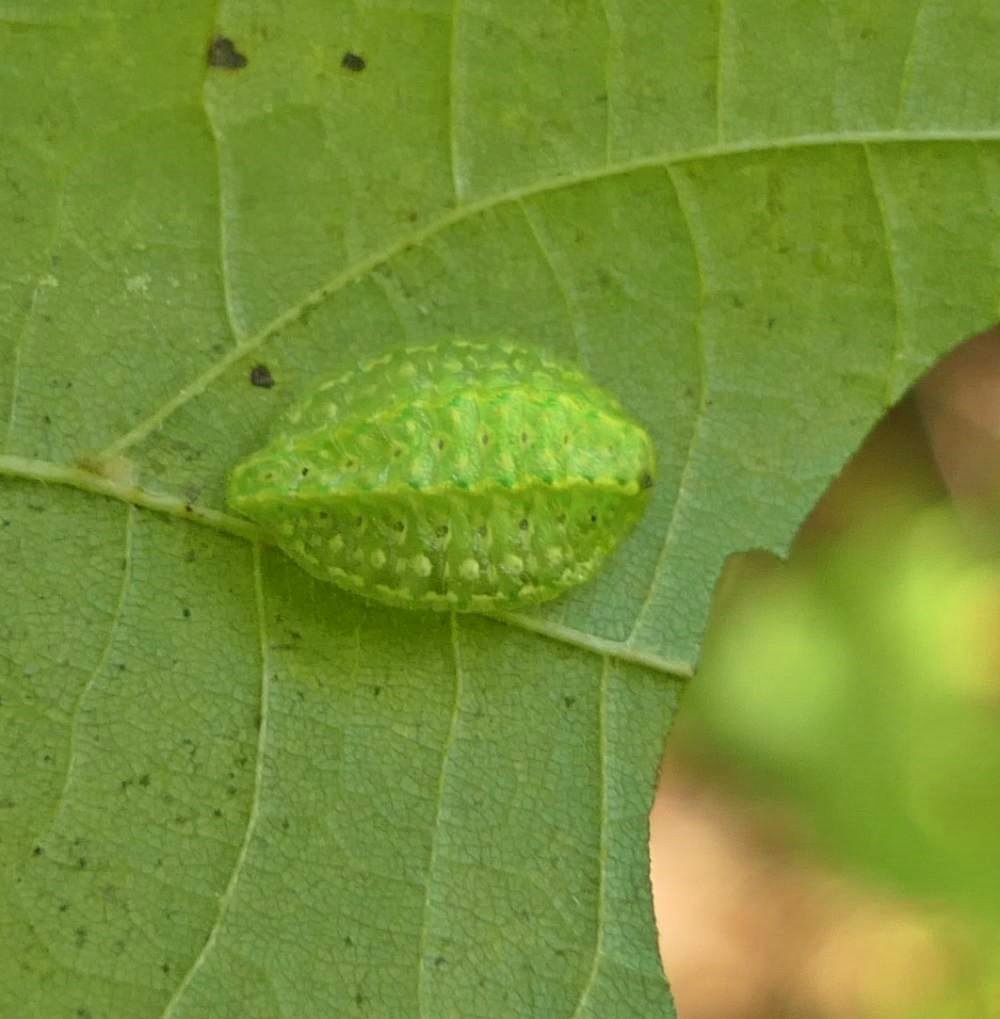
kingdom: Animalia
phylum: Arthropoda
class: Insecta
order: Lepidoptera
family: Limacodidae
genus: Lithacodes
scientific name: Lithacodes fasciola
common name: Yellow-shouldered slug moth
